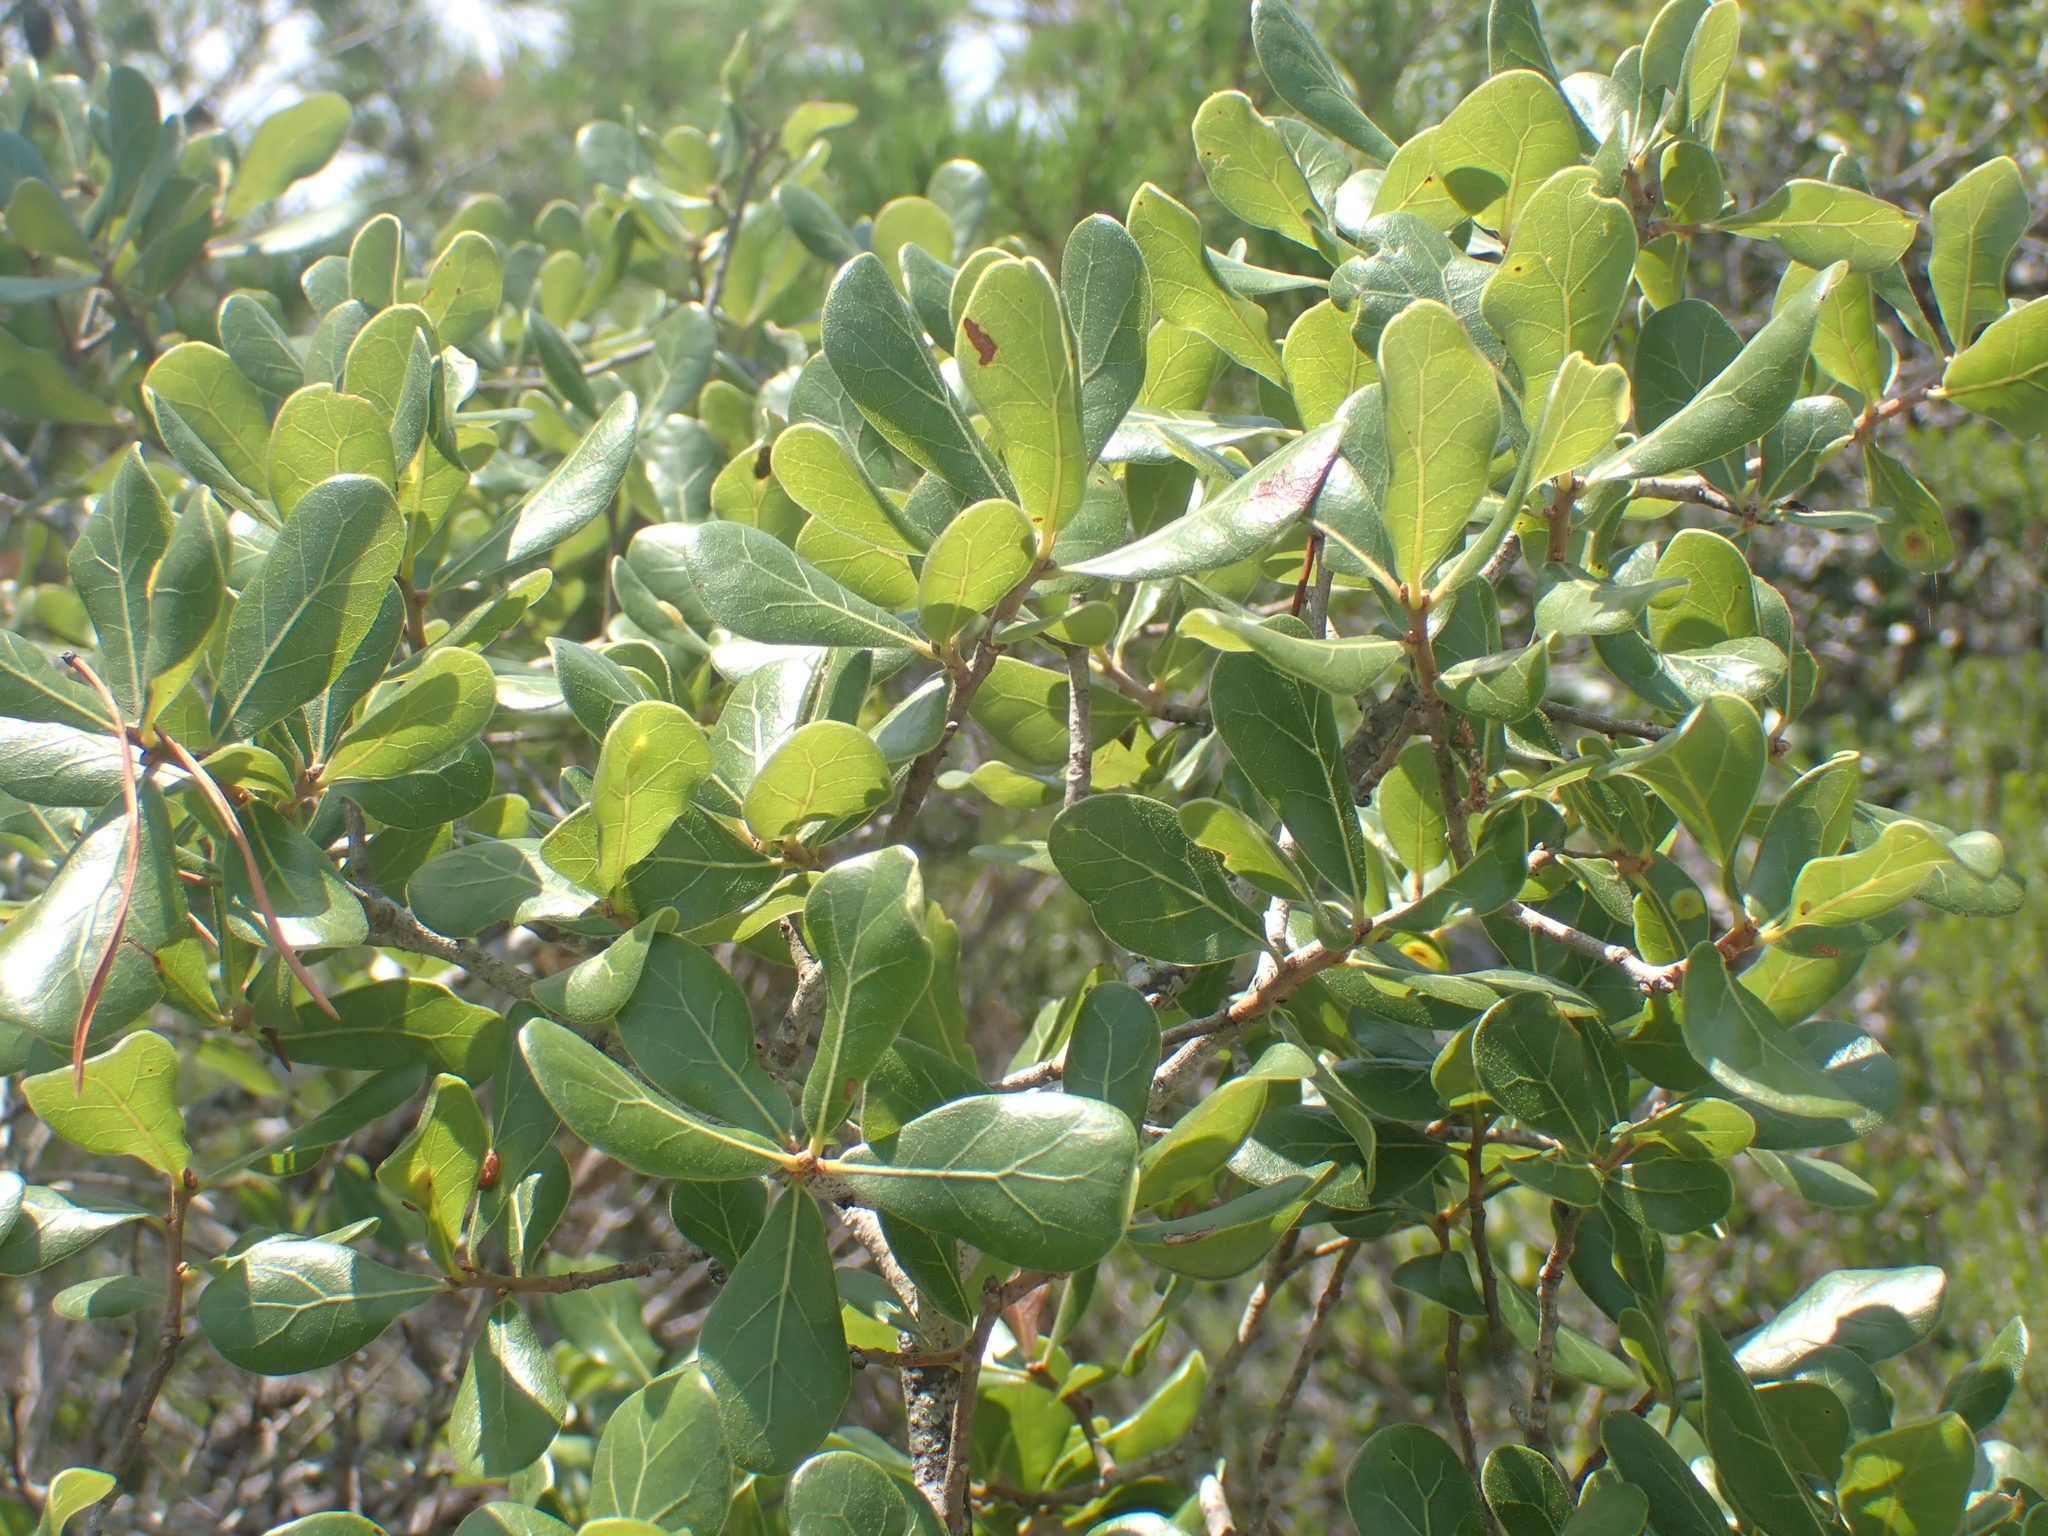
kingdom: Plantae
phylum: Tracheophyta
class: Magnoliopsida
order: Fagales
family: Fagaceae
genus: Quercus
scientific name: Quercus myrtifolia
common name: Myrtle oak
